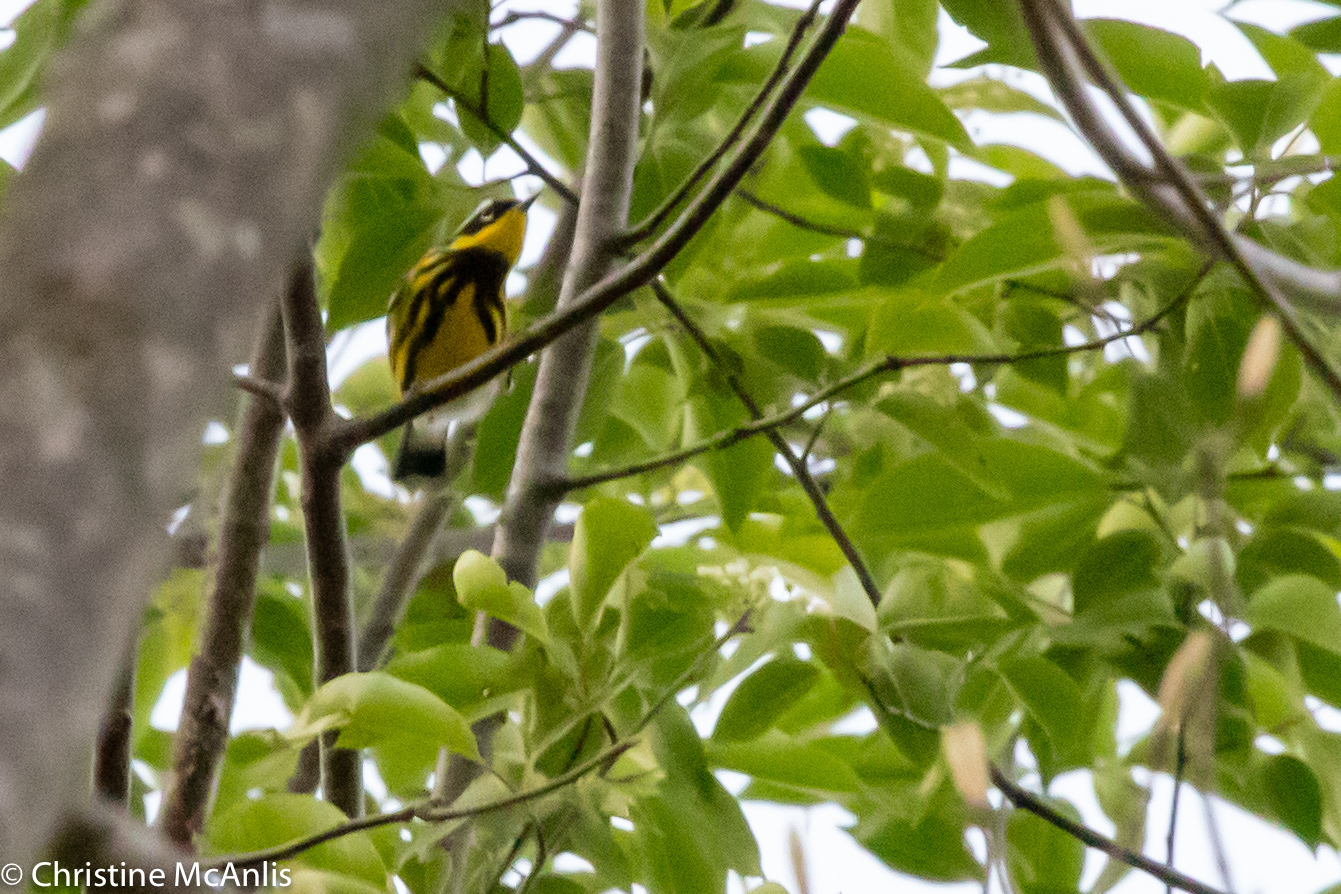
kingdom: Animalia
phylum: Chordata
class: Aves
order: Passeriformes
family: Parulidae
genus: Setophaga
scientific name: Setophaga magnolia
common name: Magnolia warbler
